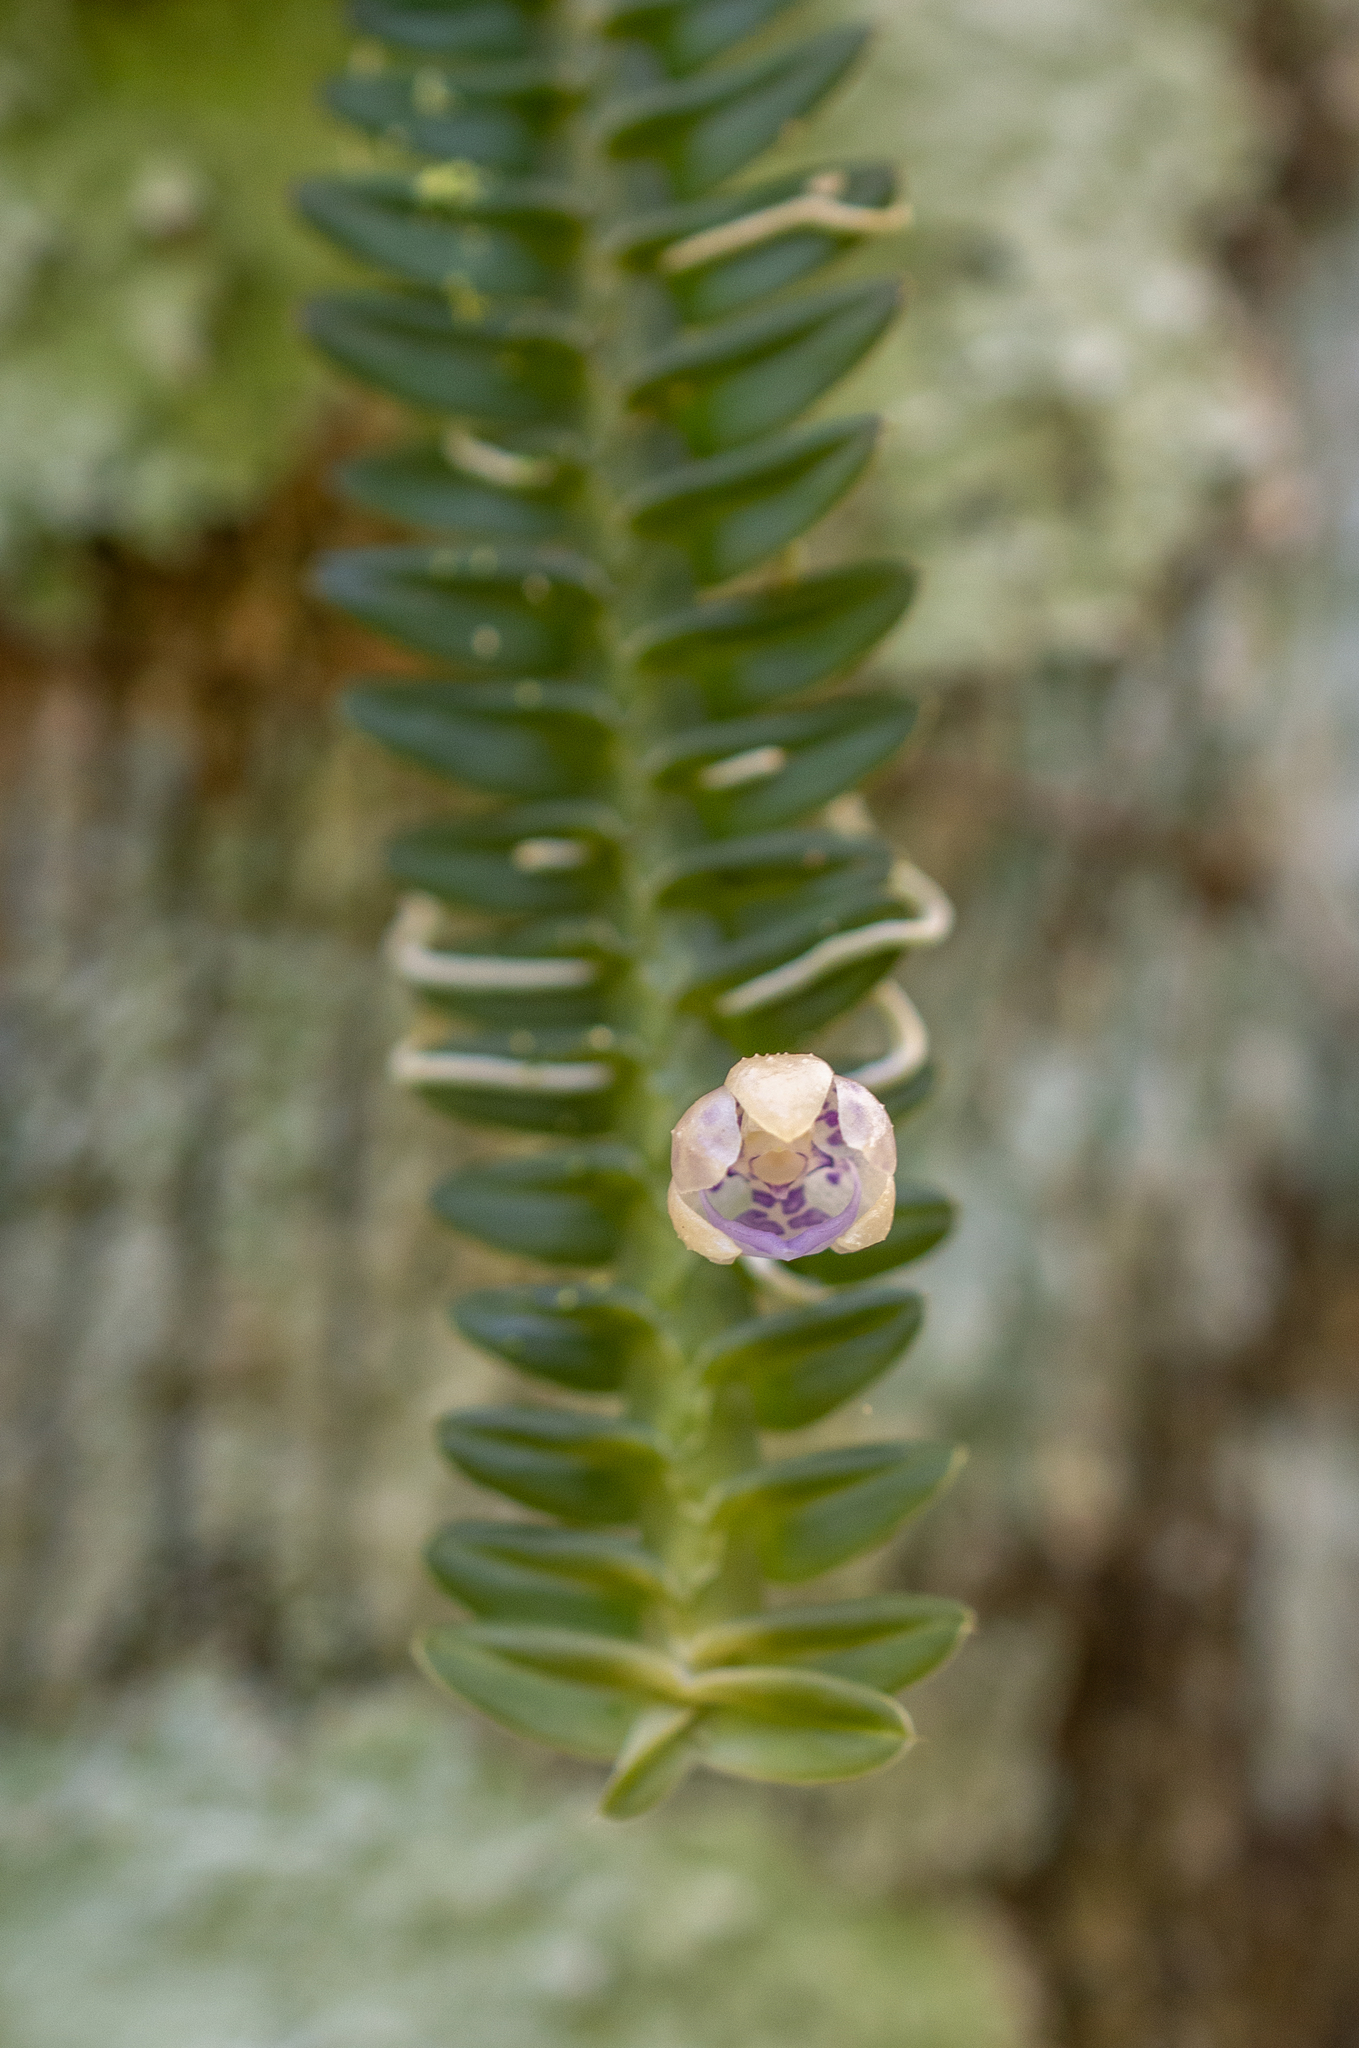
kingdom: Plantae
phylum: Tracheophyta
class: Liliopsida
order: Asparagales
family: Orchidaceae
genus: Dichaea
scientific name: Dichaea pendula
